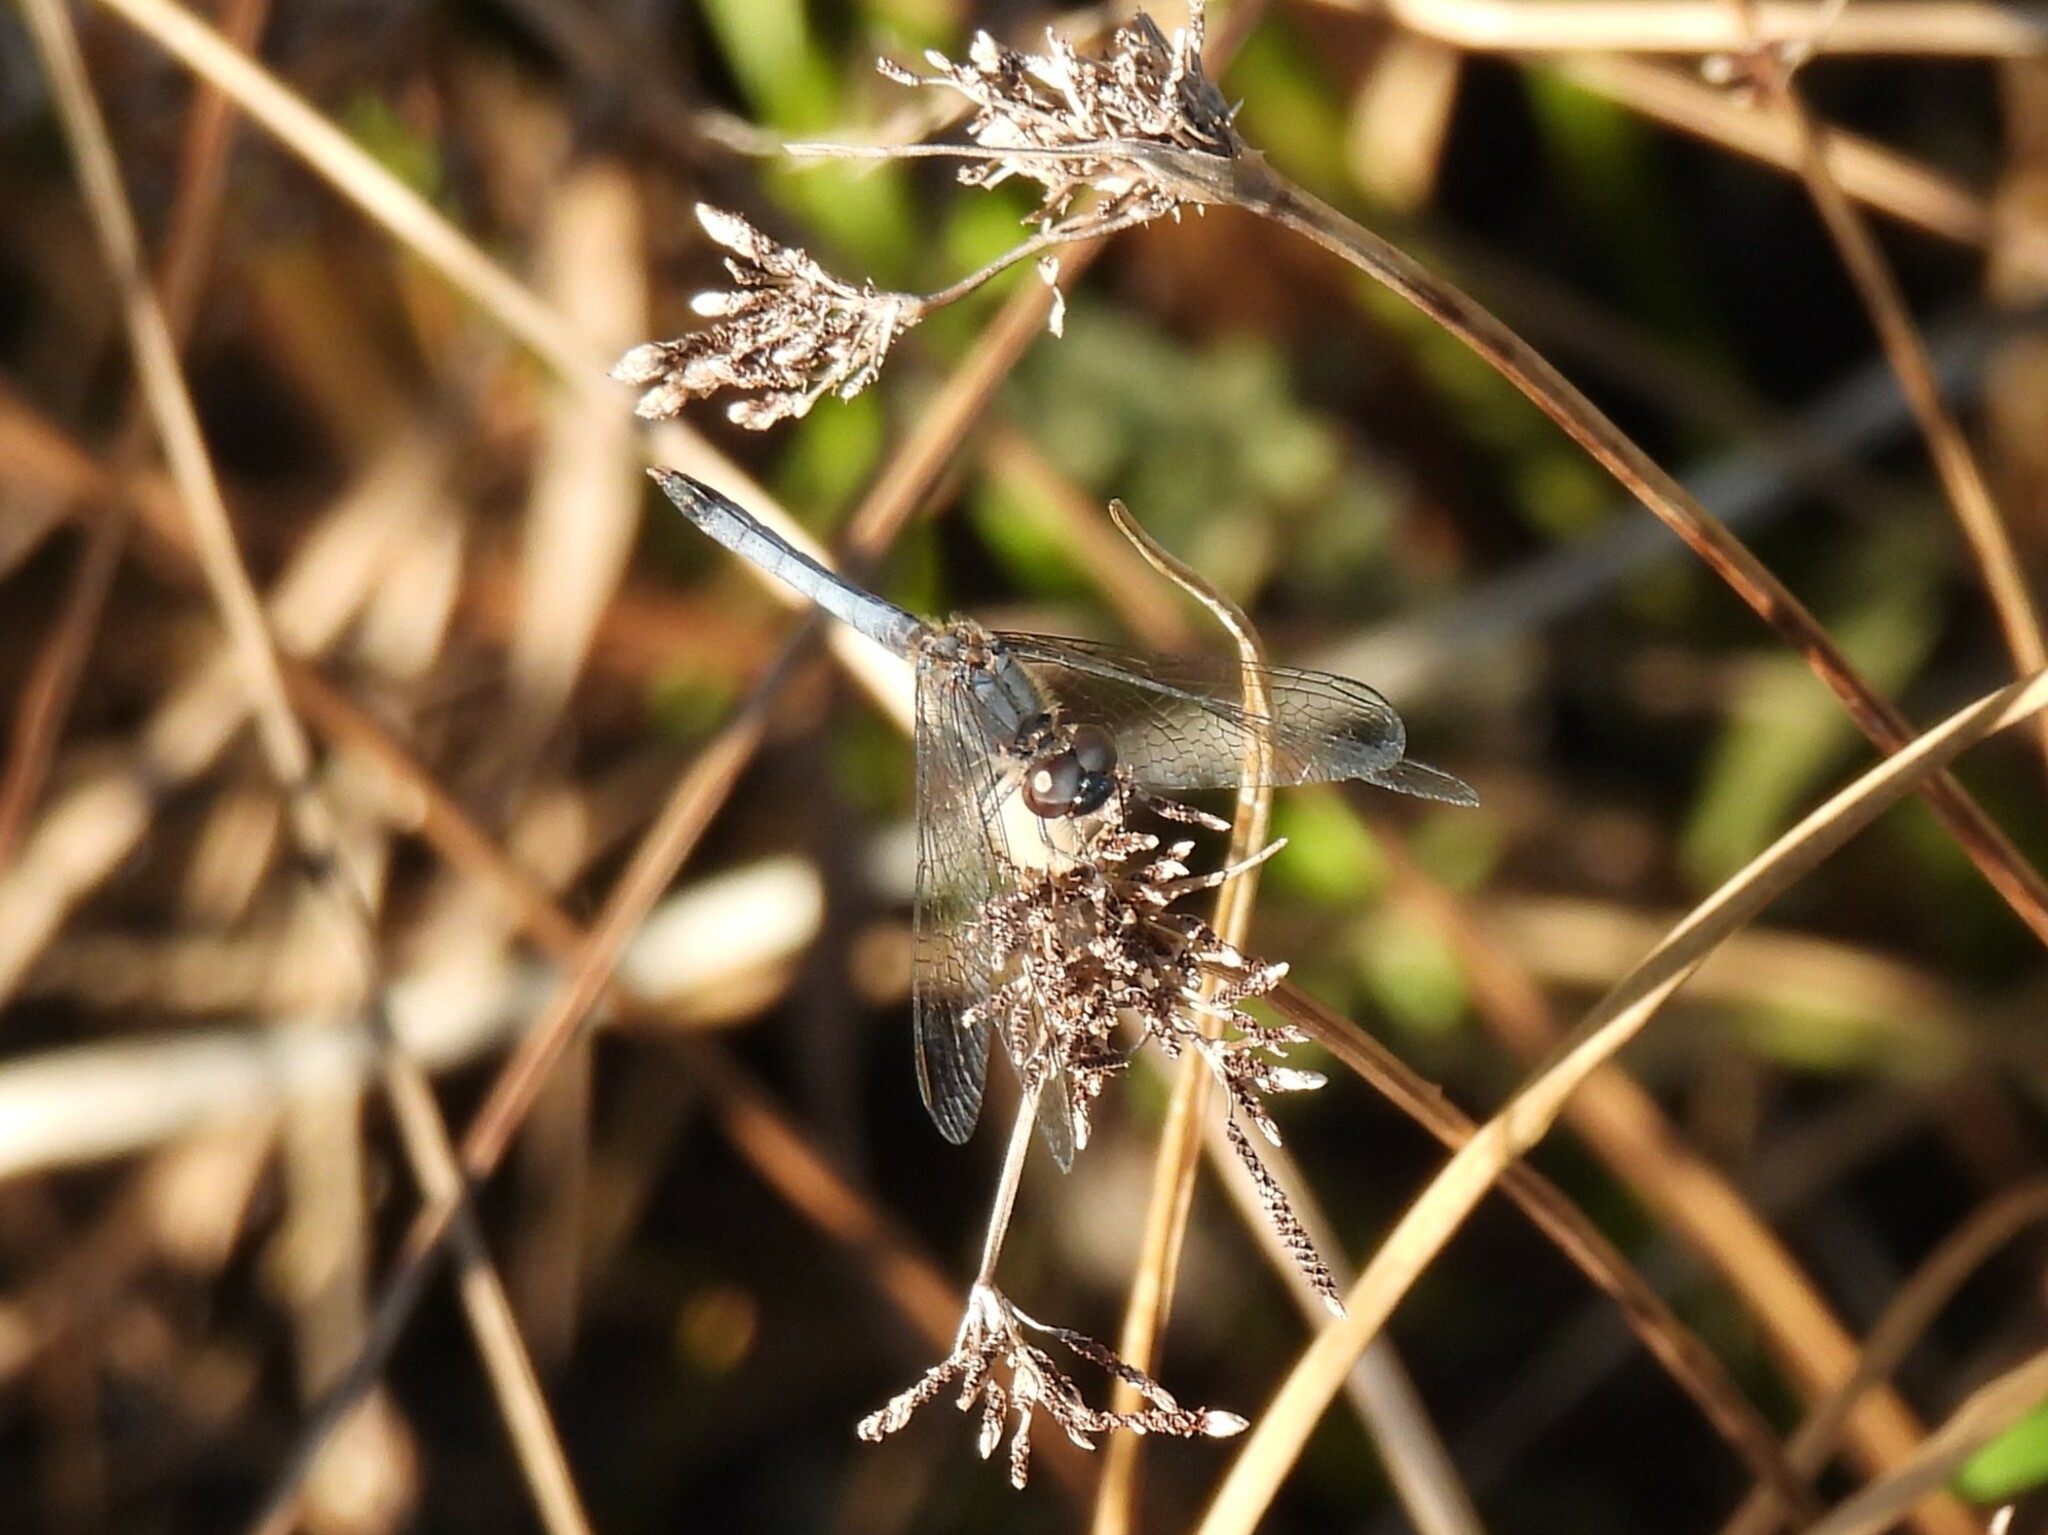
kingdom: Animalia
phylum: Arthropoda
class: Insecta
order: Odonata
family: Libellulidae
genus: Erythrodiplax
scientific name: Erythrodiplax minuscula
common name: Little blue dragonlet
